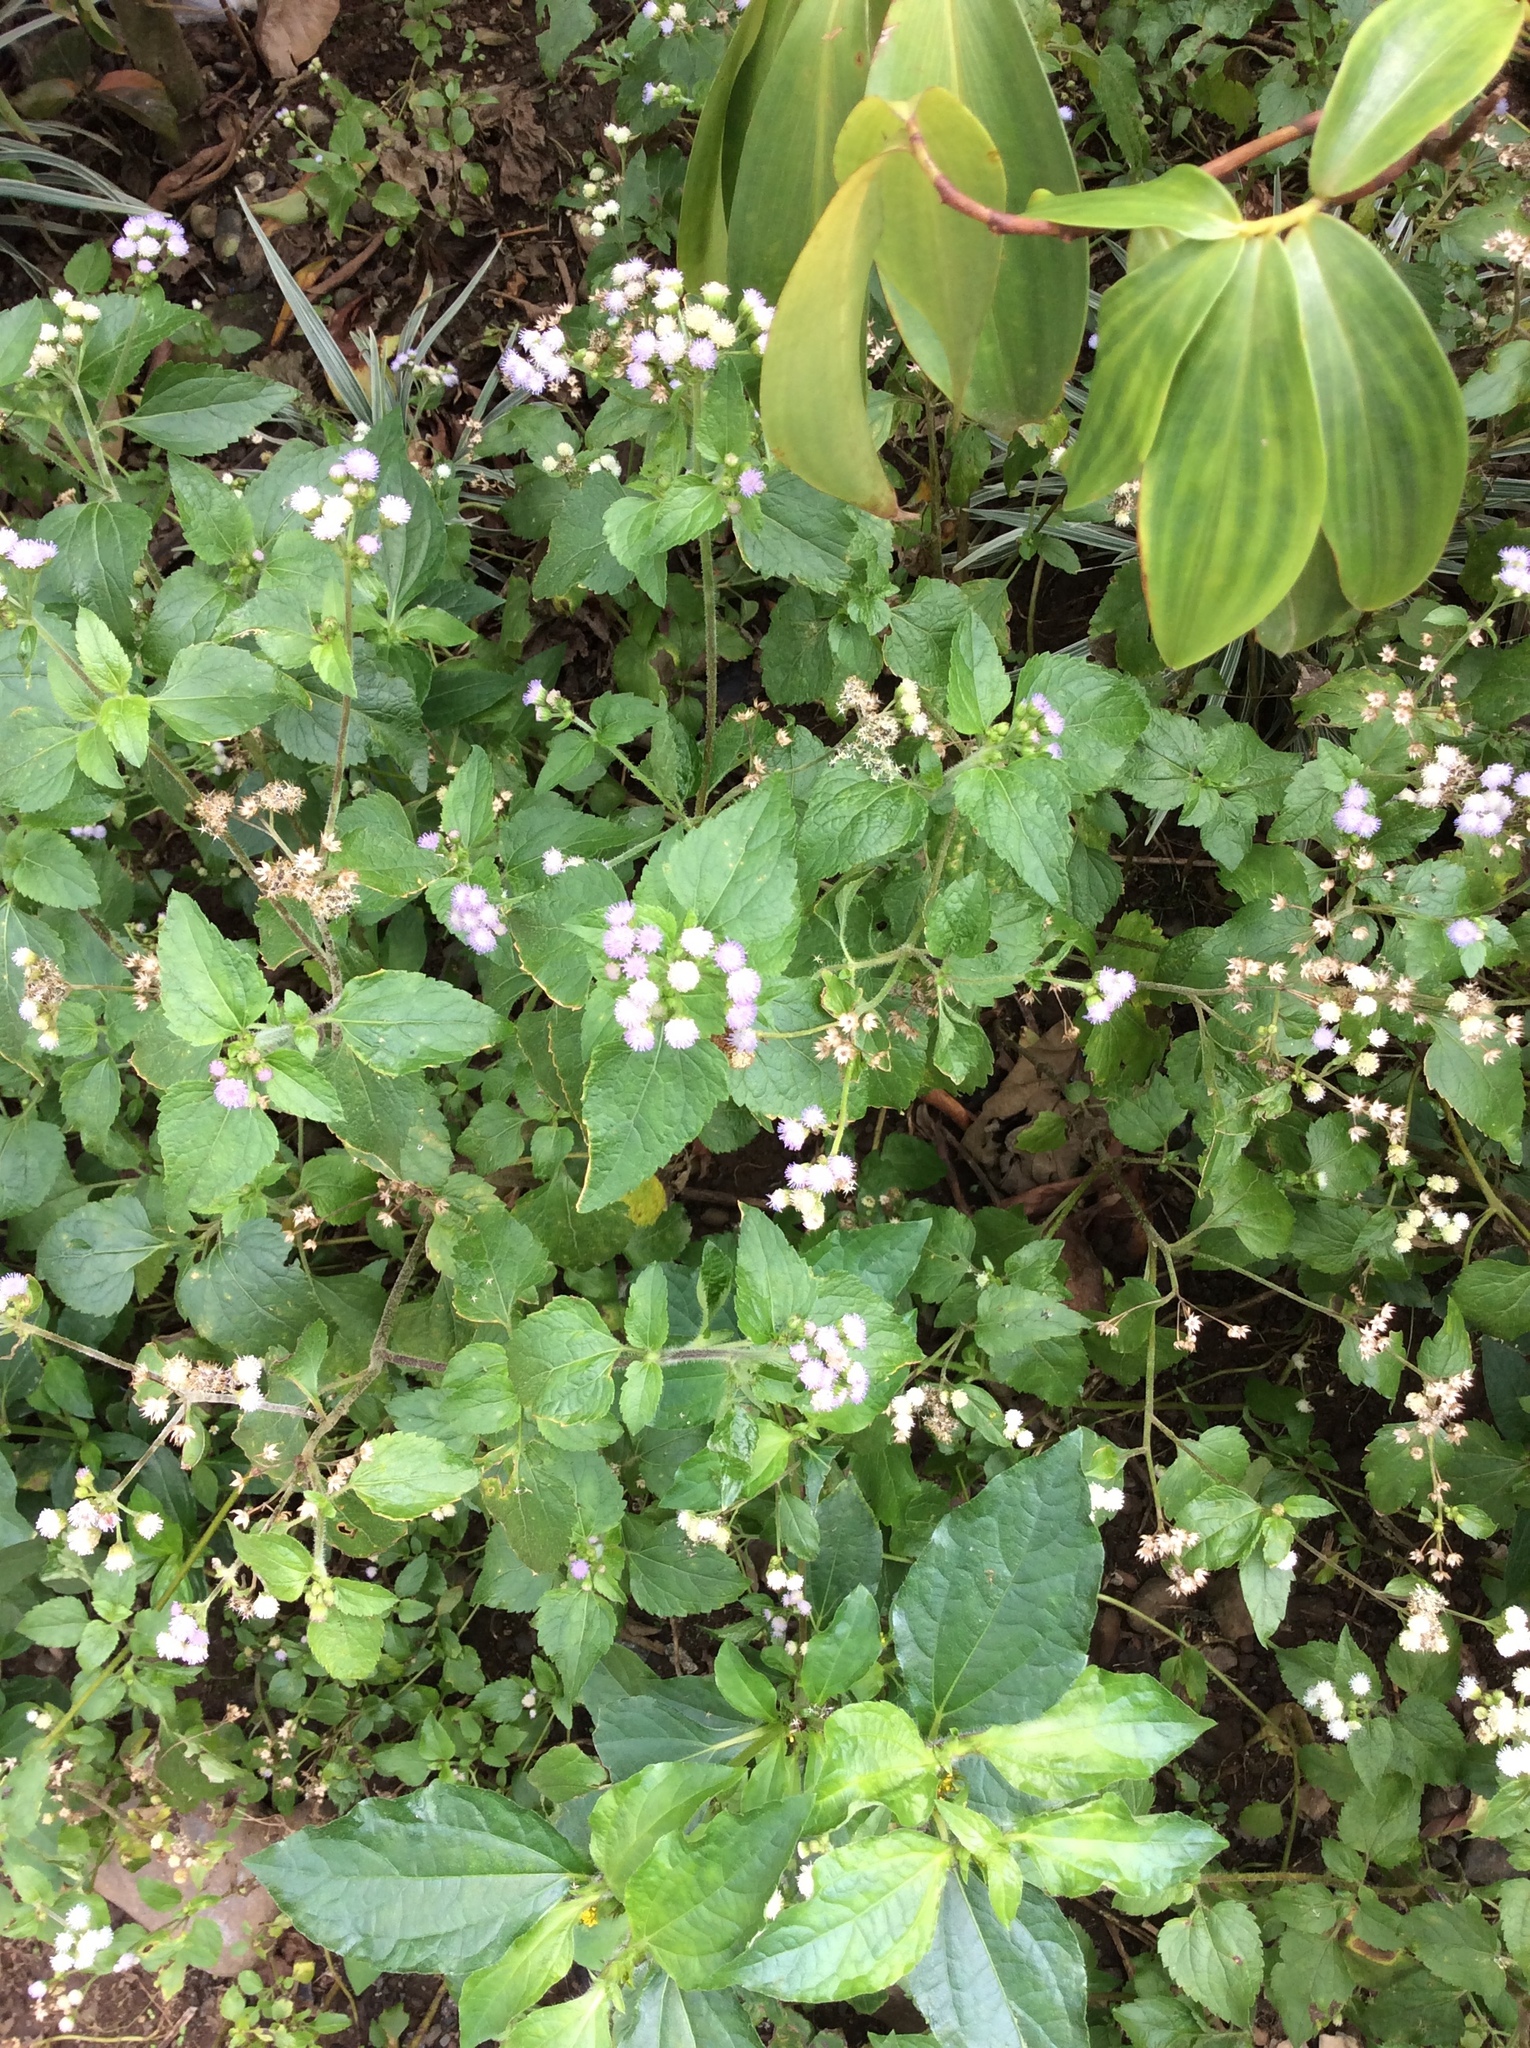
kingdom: Plantae
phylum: Tracheophyta
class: Magnoliopsida
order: Asterales
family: Asteraceae
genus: Ageratum
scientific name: Ageratum conyzoides
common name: Tropical whiteweed
